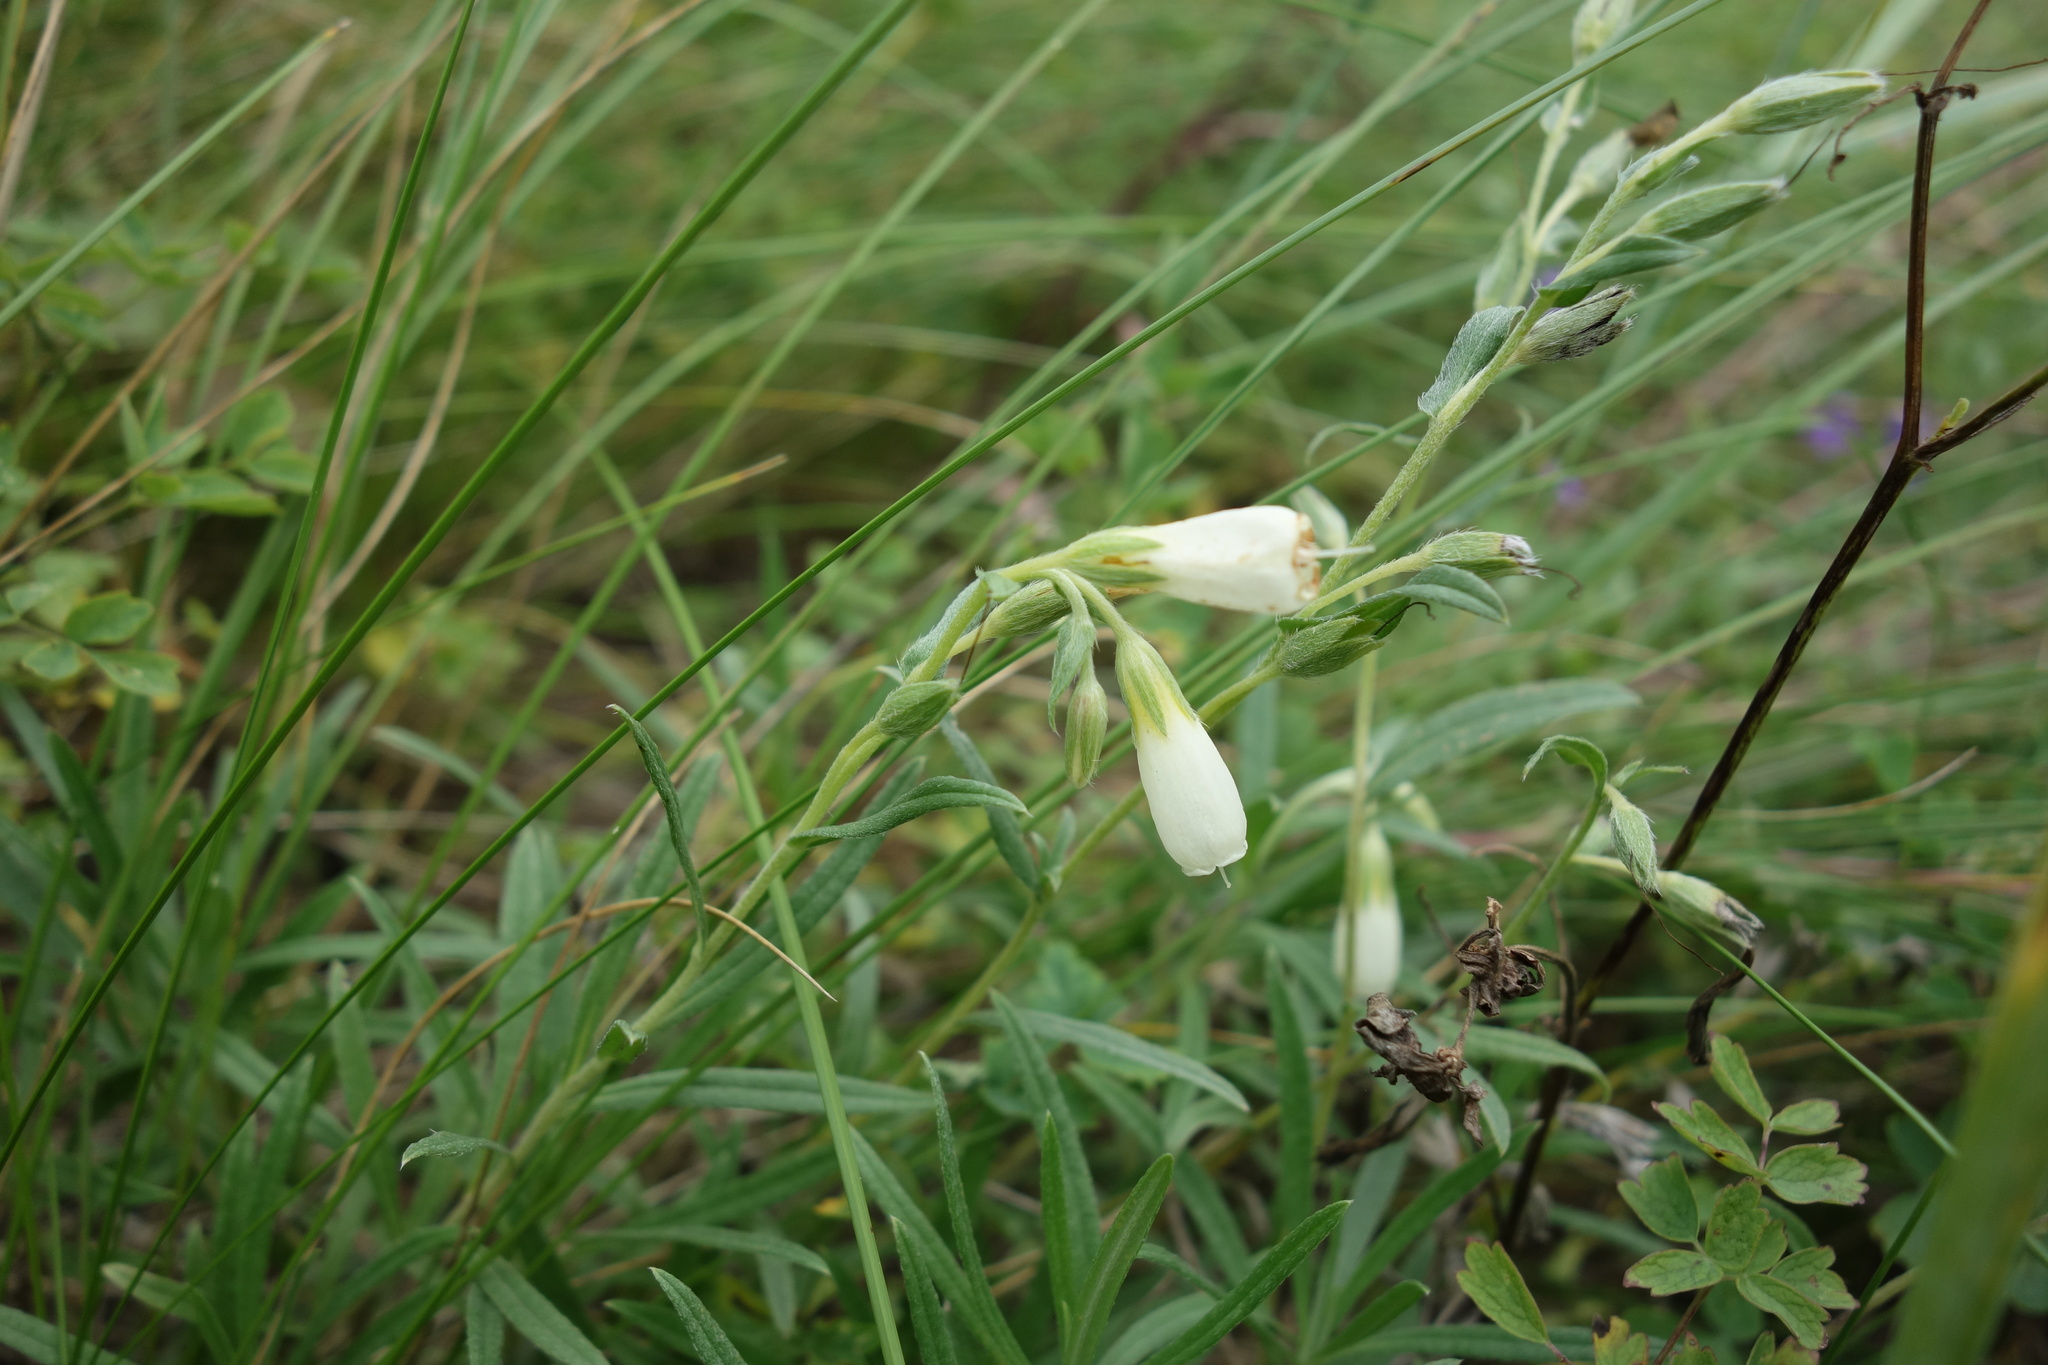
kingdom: Plantae
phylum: Tracheophyta
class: Magnoliopsida
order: Boraginales
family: Boraginaceae
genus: Onosma
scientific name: Onosma simplicissima
